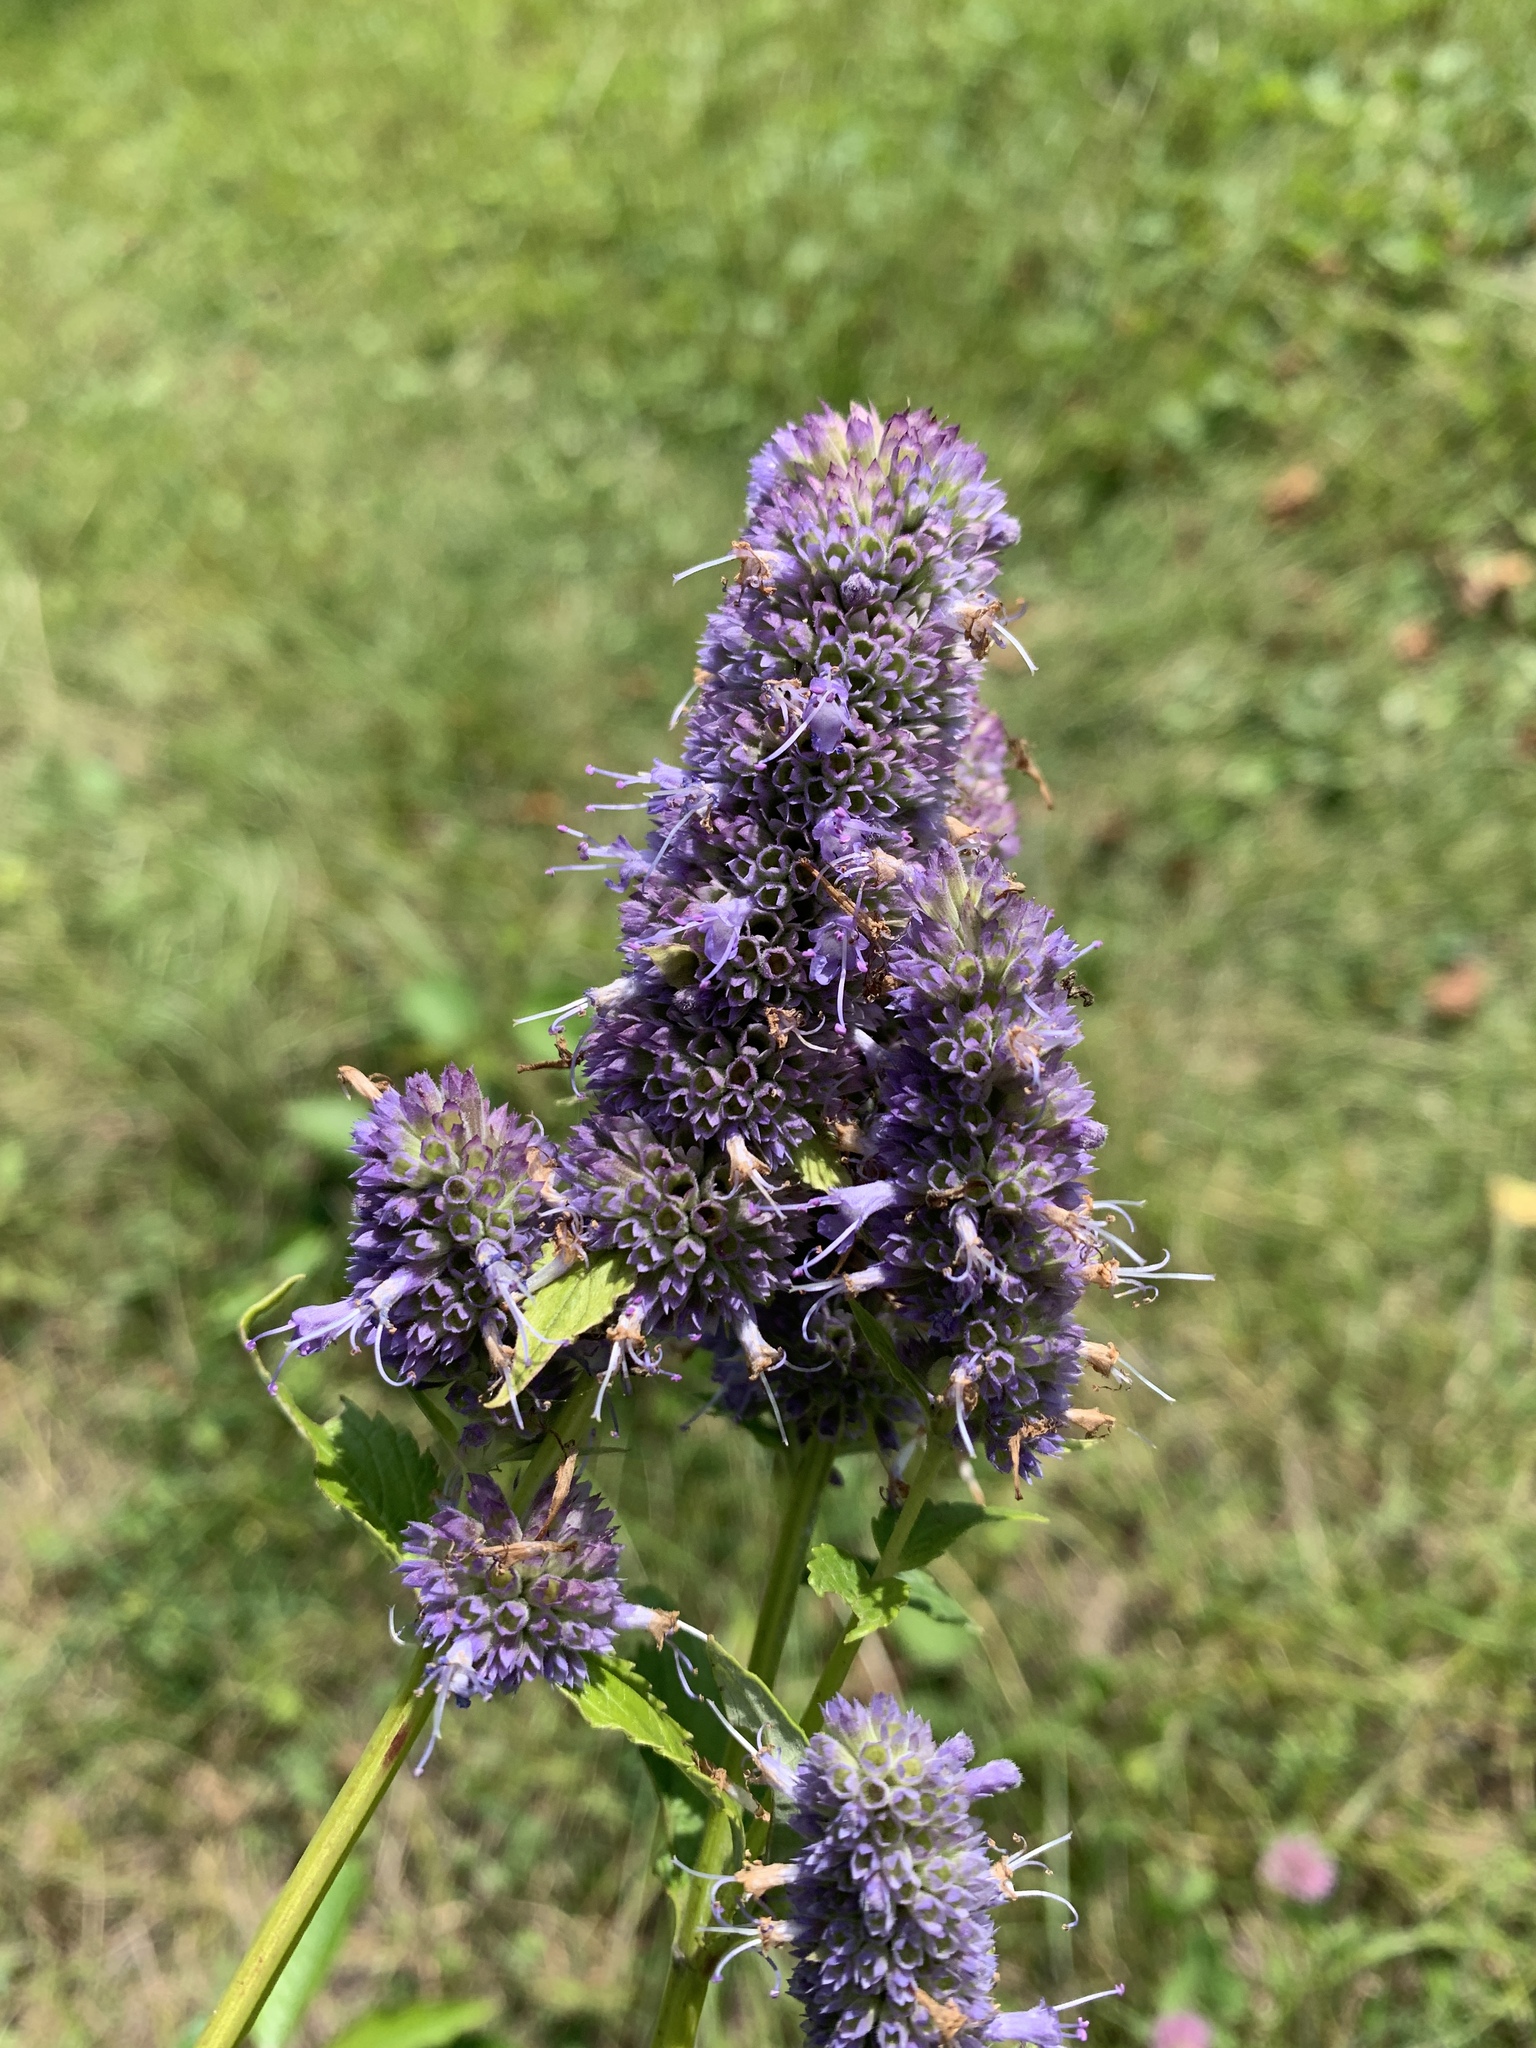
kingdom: Plantae
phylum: Tracheophyta
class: Magnoliopsida
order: Lamiales
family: Lamiaceae
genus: Agastache
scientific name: Agastache foeniculum
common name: Anise hyssop
